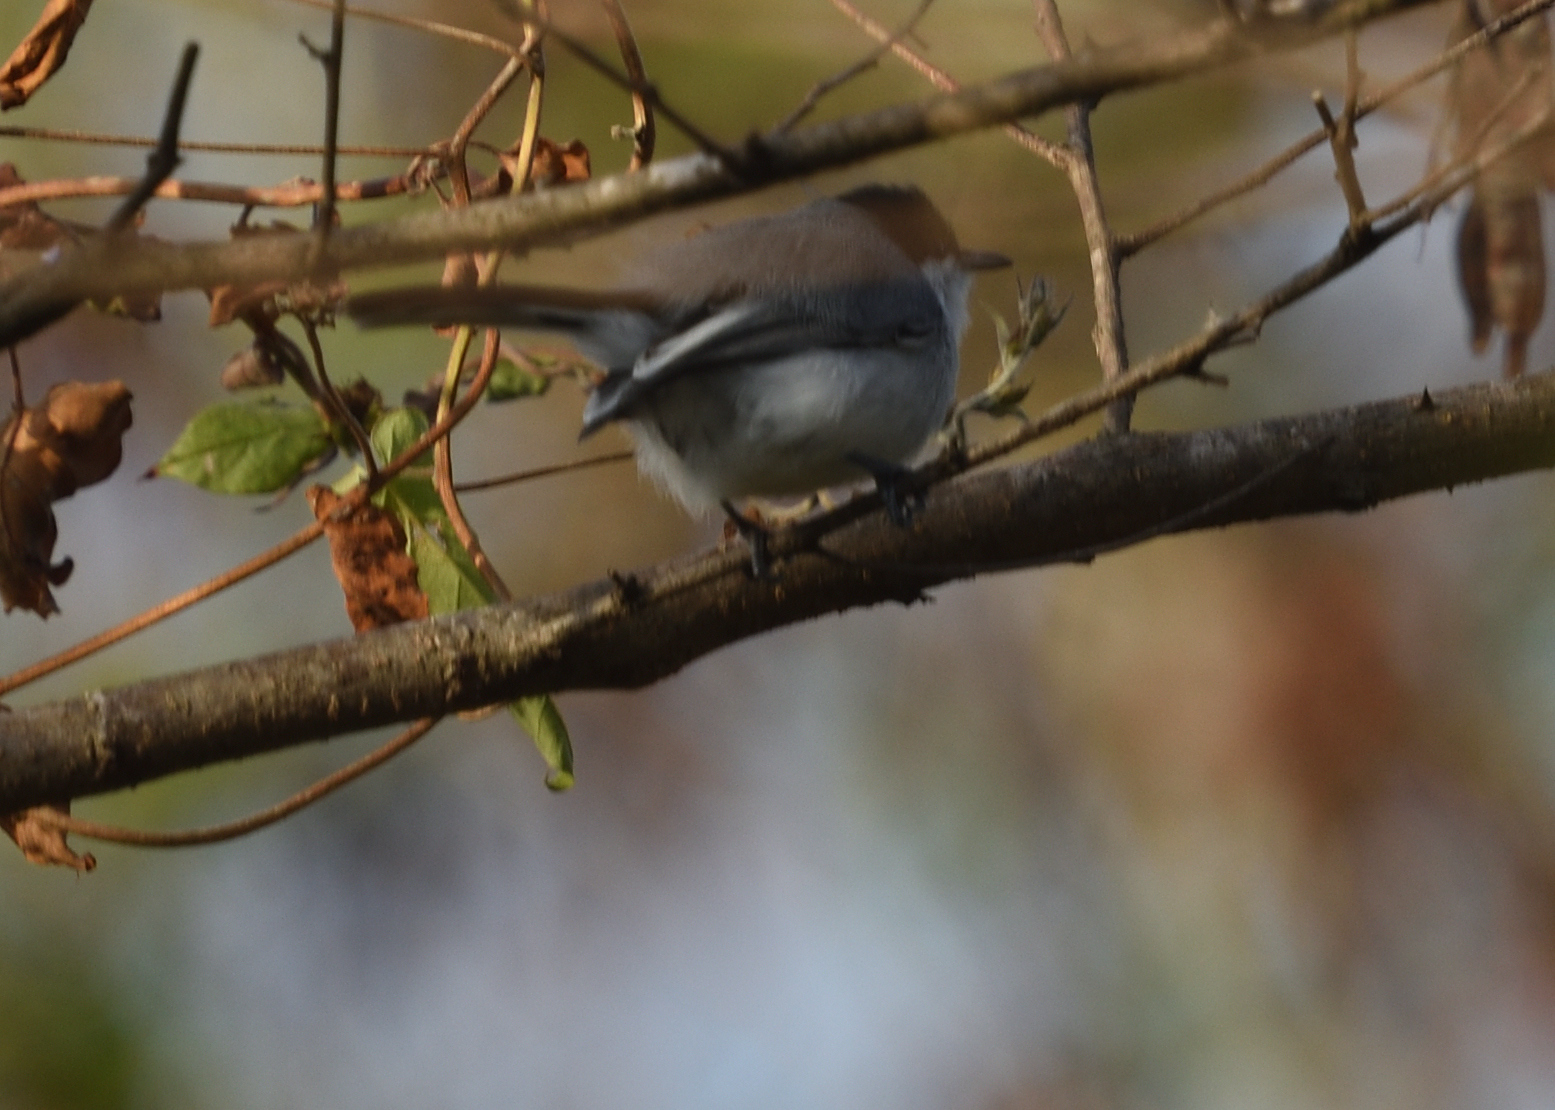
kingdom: Animalia
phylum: Chordata
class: Aves
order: Passeriformes
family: Polioptilidae
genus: Polioptila
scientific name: Polioptila plumbea
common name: Tropical gnatcatcher
